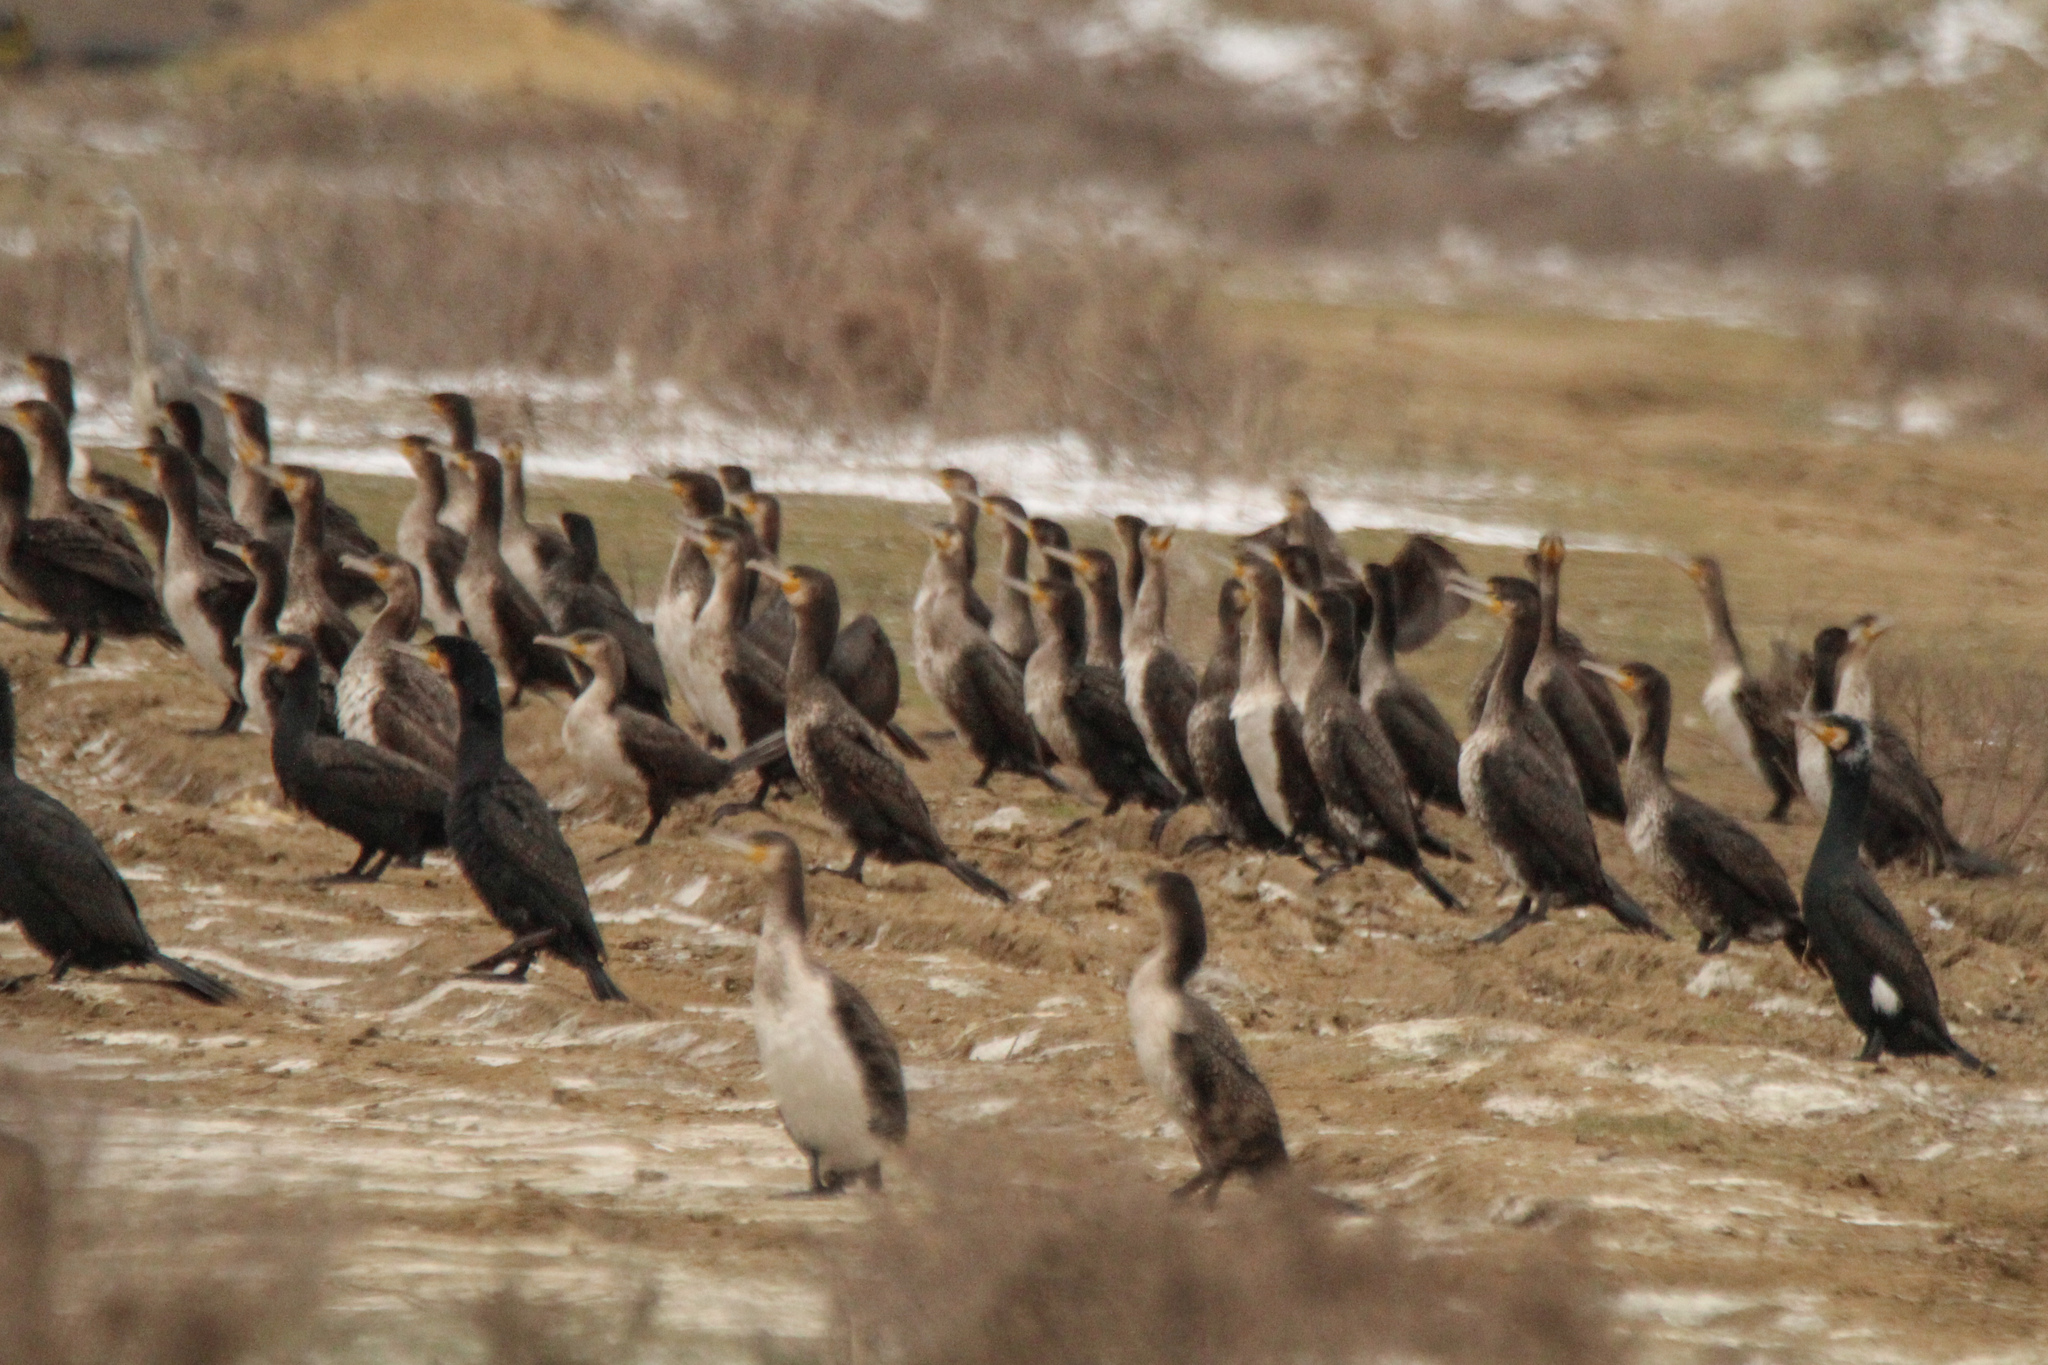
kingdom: Animalia
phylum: Chordata
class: Aves
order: Suliformes
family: Phalacrocoracidae
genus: Phalacrocorax
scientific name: Phalacrocorax carbo
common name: Great cormorant
